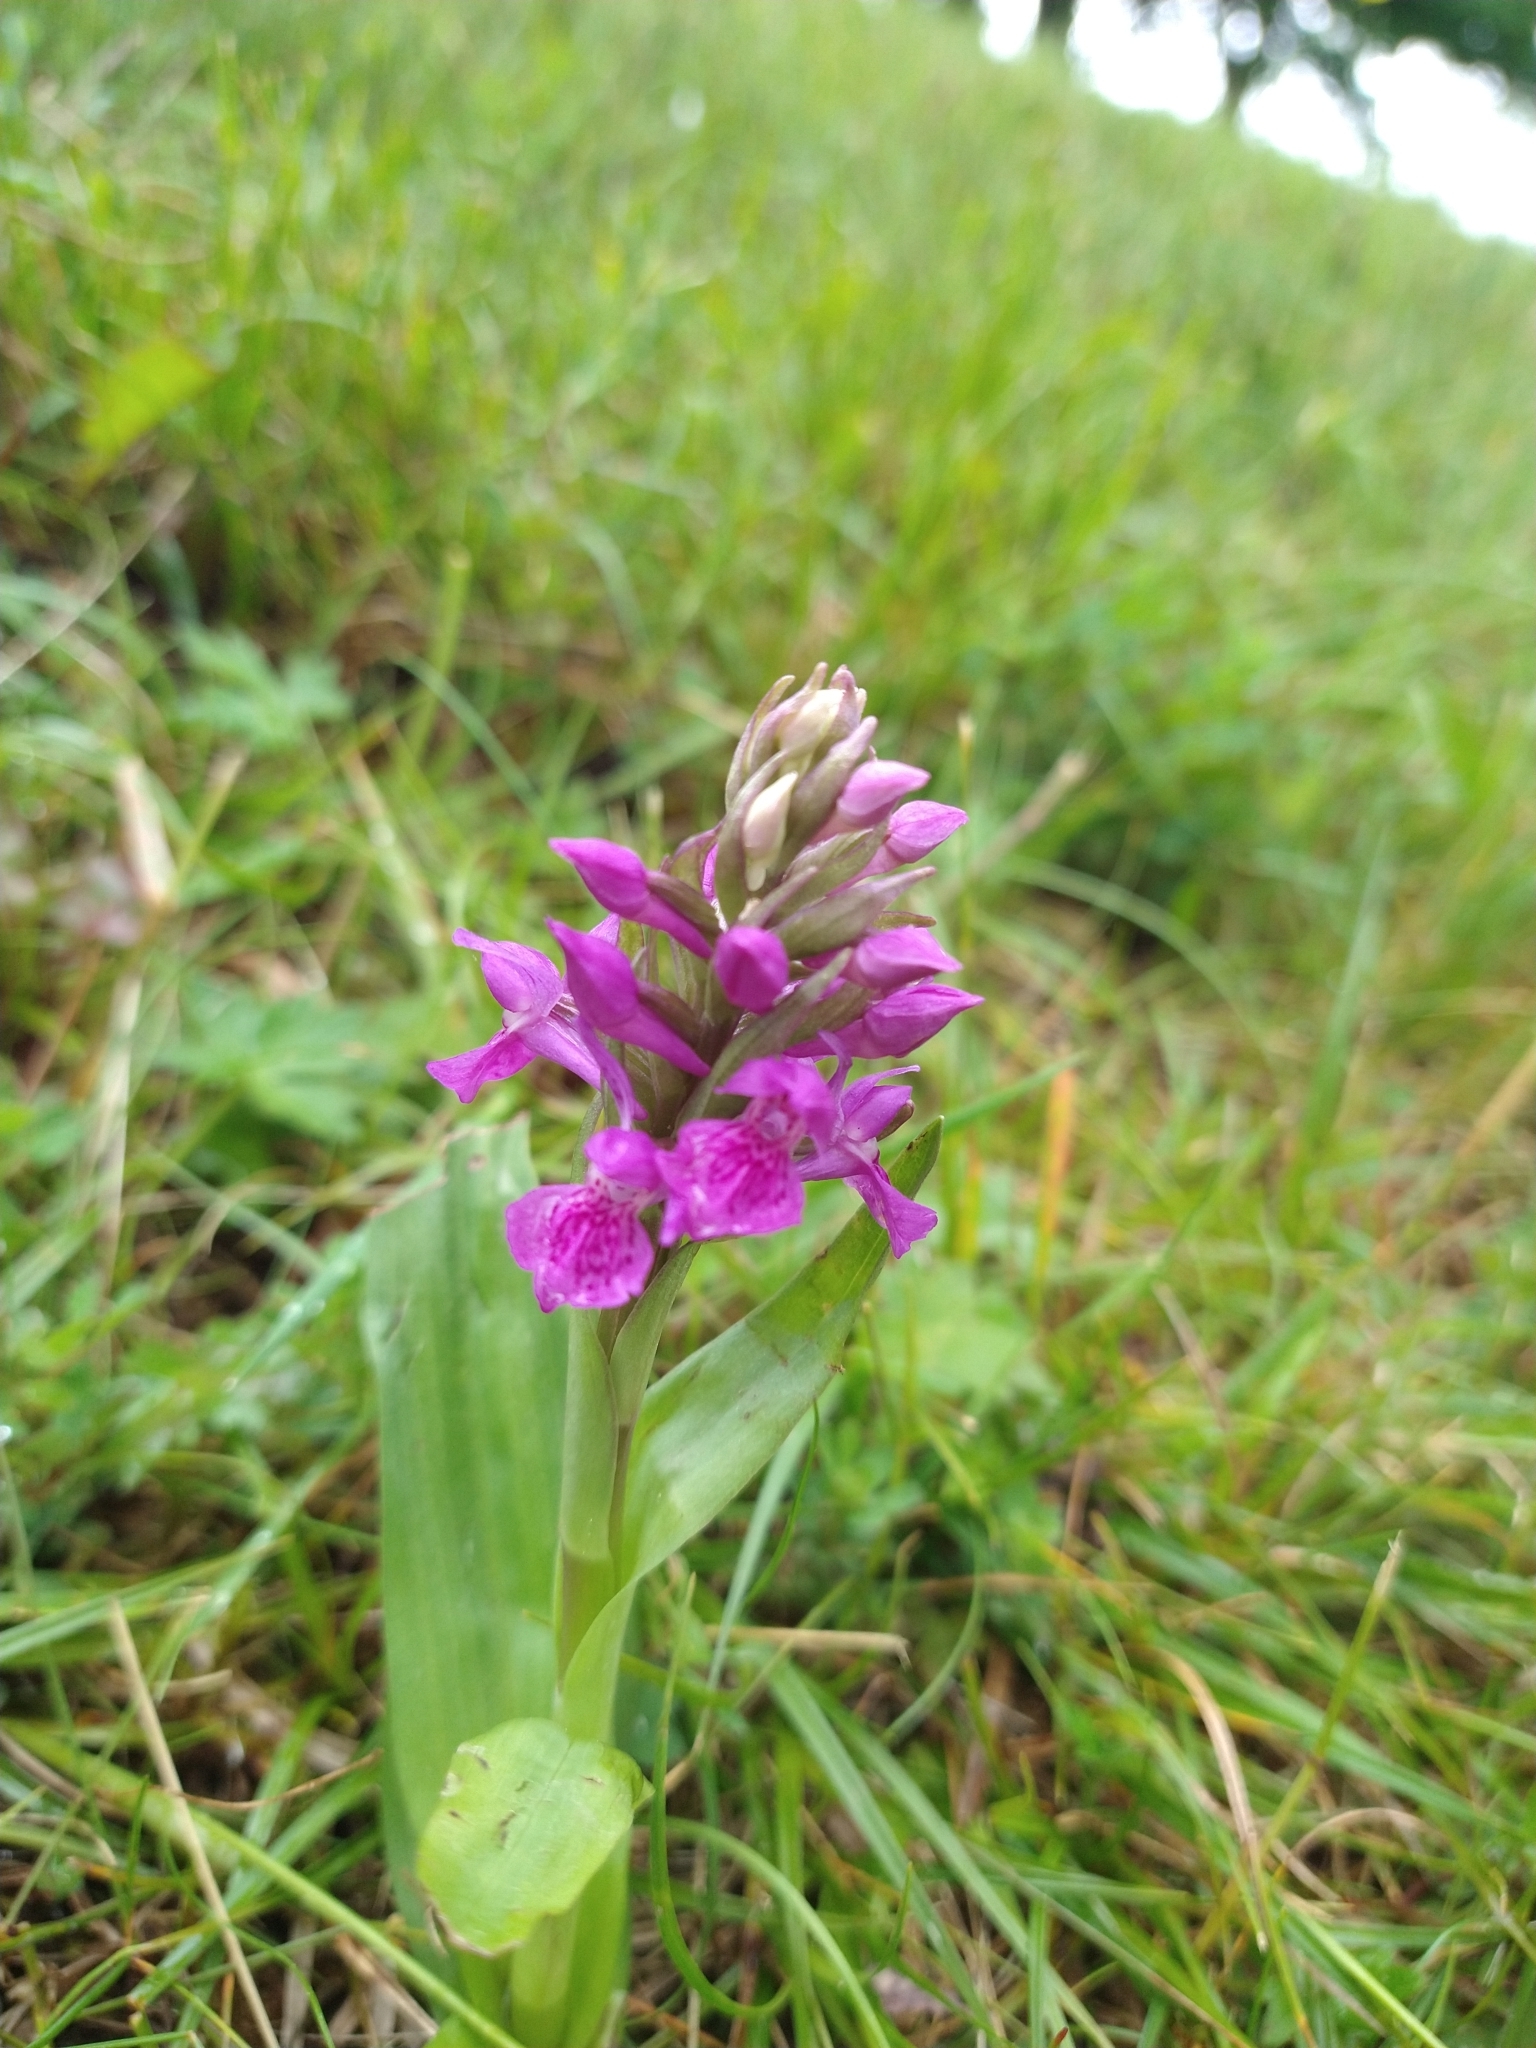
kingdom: Plantae
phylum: Tracheophyta
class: Liliopsida
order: Asparagales
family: Orchidaceae
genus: Dactylorhiza
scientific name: Dactylorhiza majalis
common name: Marsh orchid
